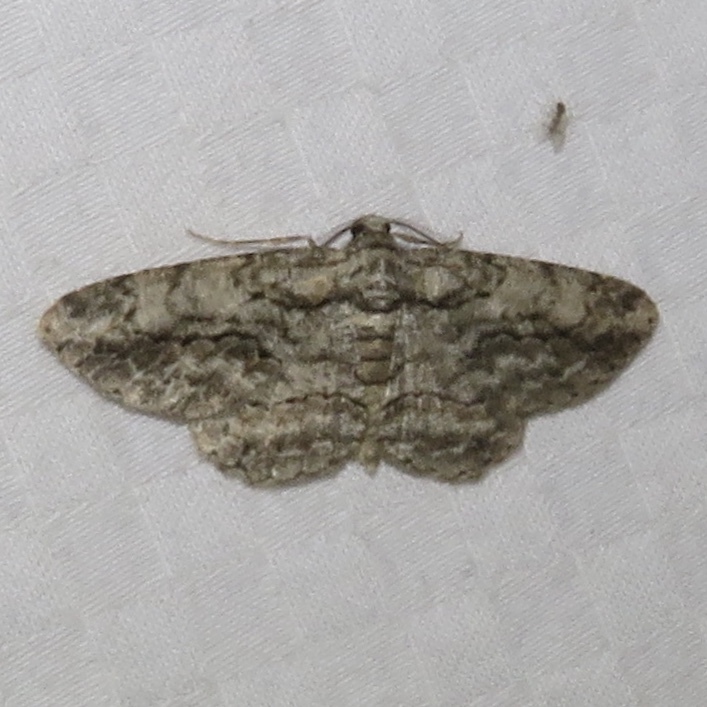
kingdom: Animalia
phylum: Arthropoda
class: Insecta
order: Lepidoptera
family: Geometridae
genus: Anavitrinella
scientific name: Anavitrinella pampinaria
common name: Common gray
